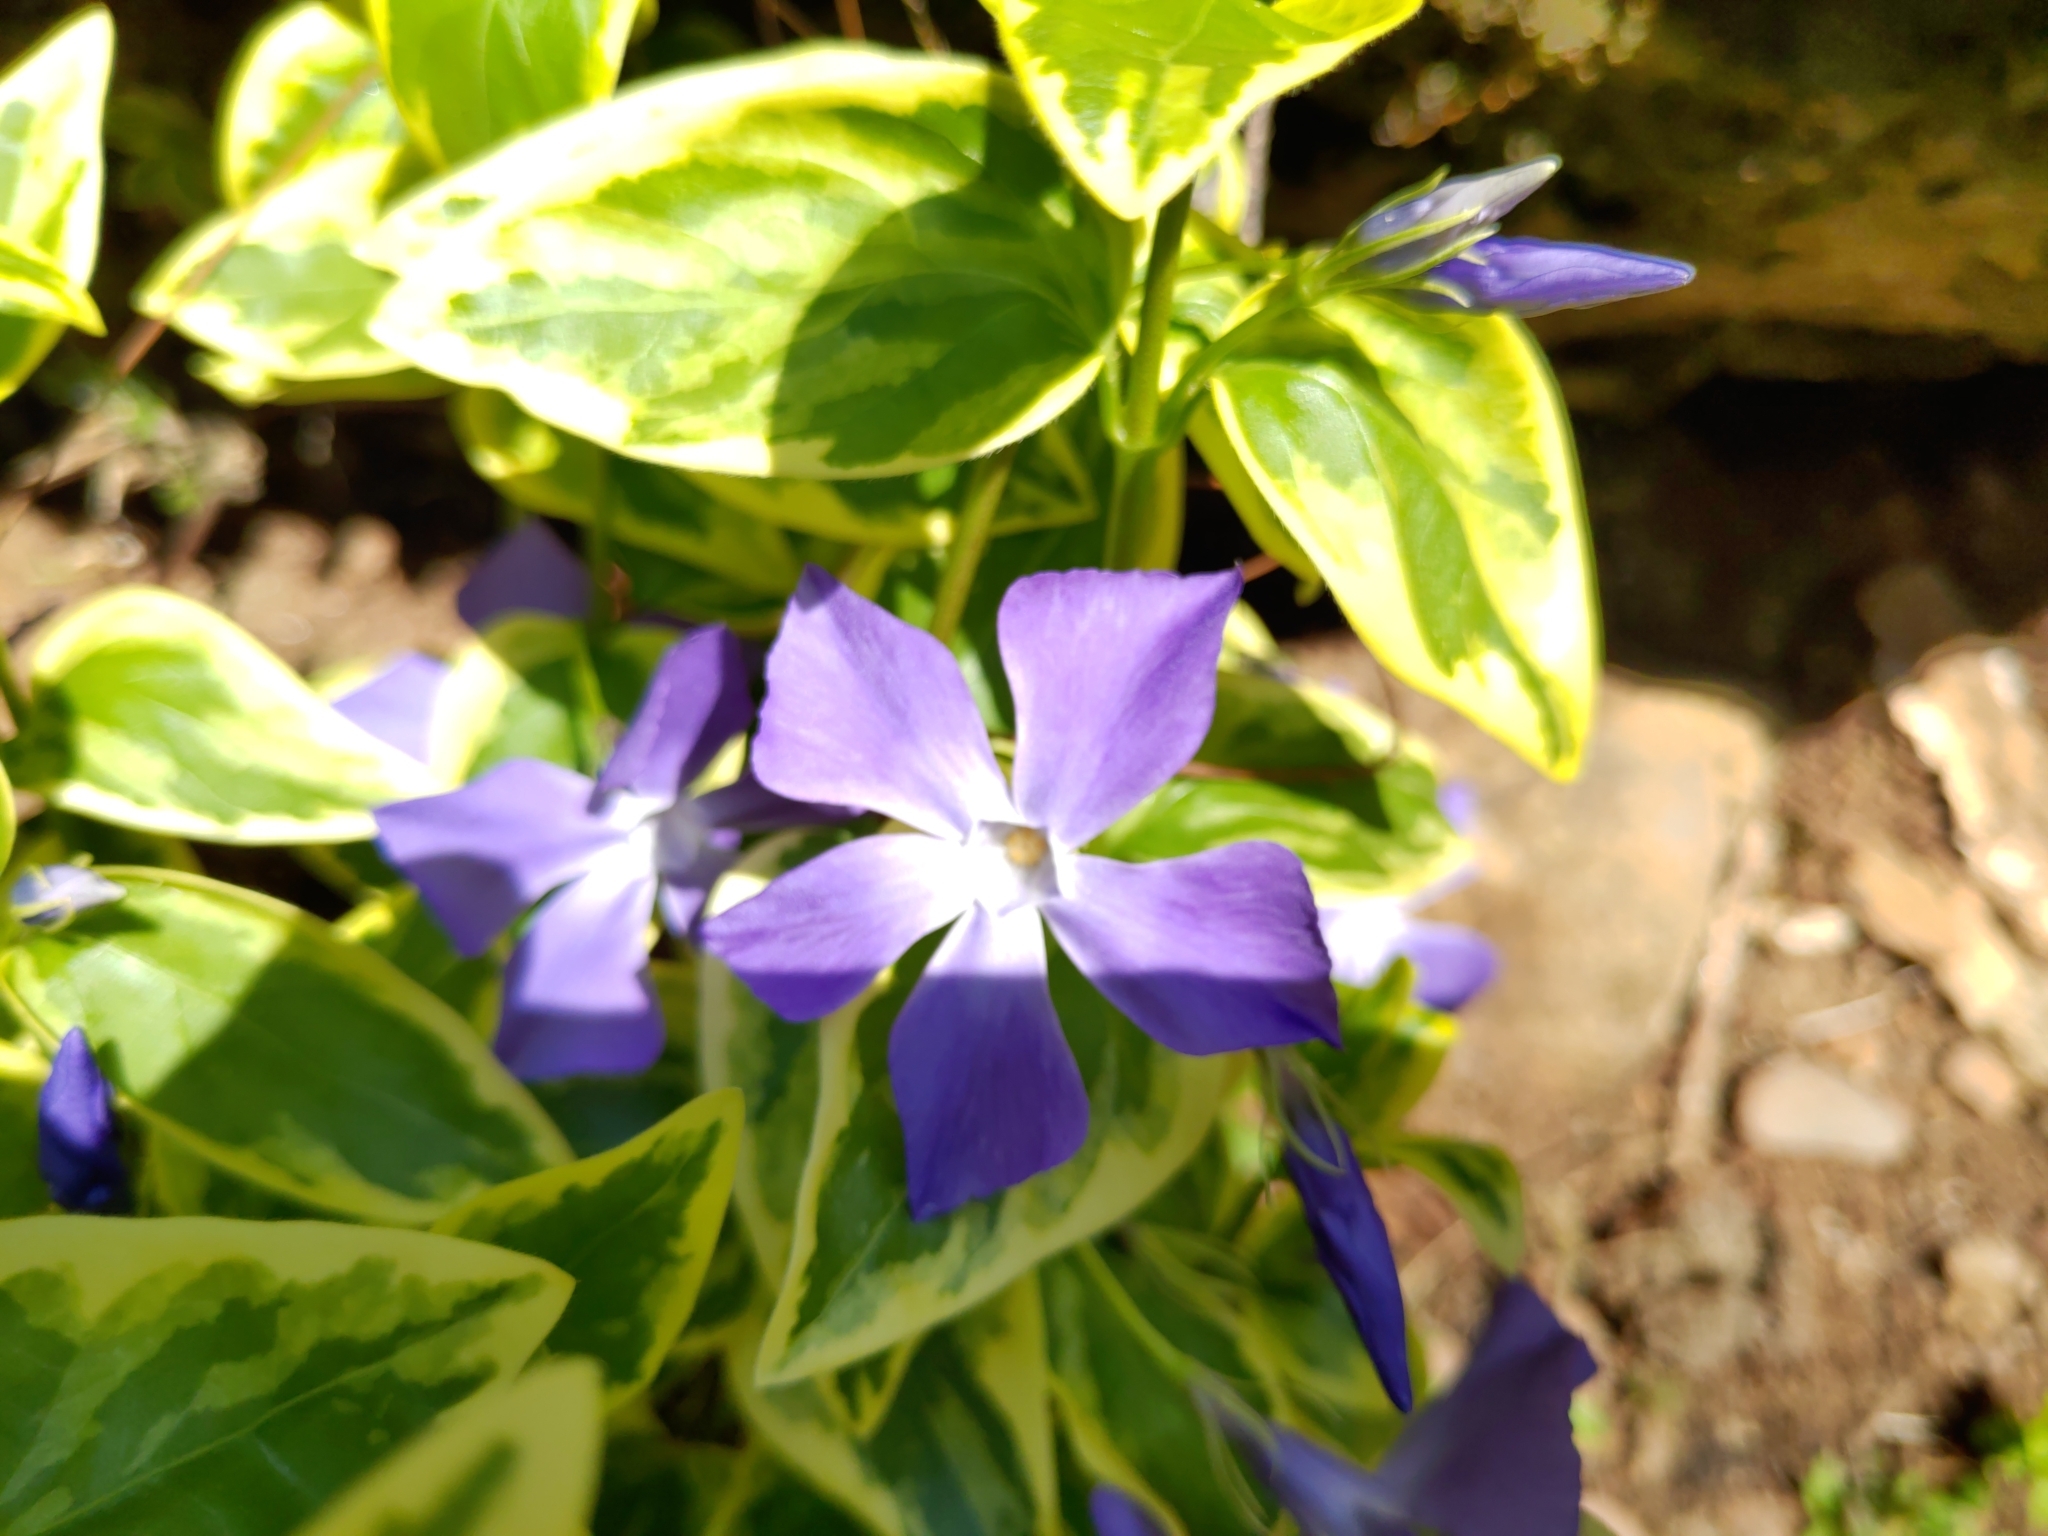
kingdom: Plantae
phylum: Tracheophyta
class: Magnoliopsida
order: Gentianales
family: Apocynaceae
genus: Vinca
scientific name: Vinca major
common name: Greater periwinkle
